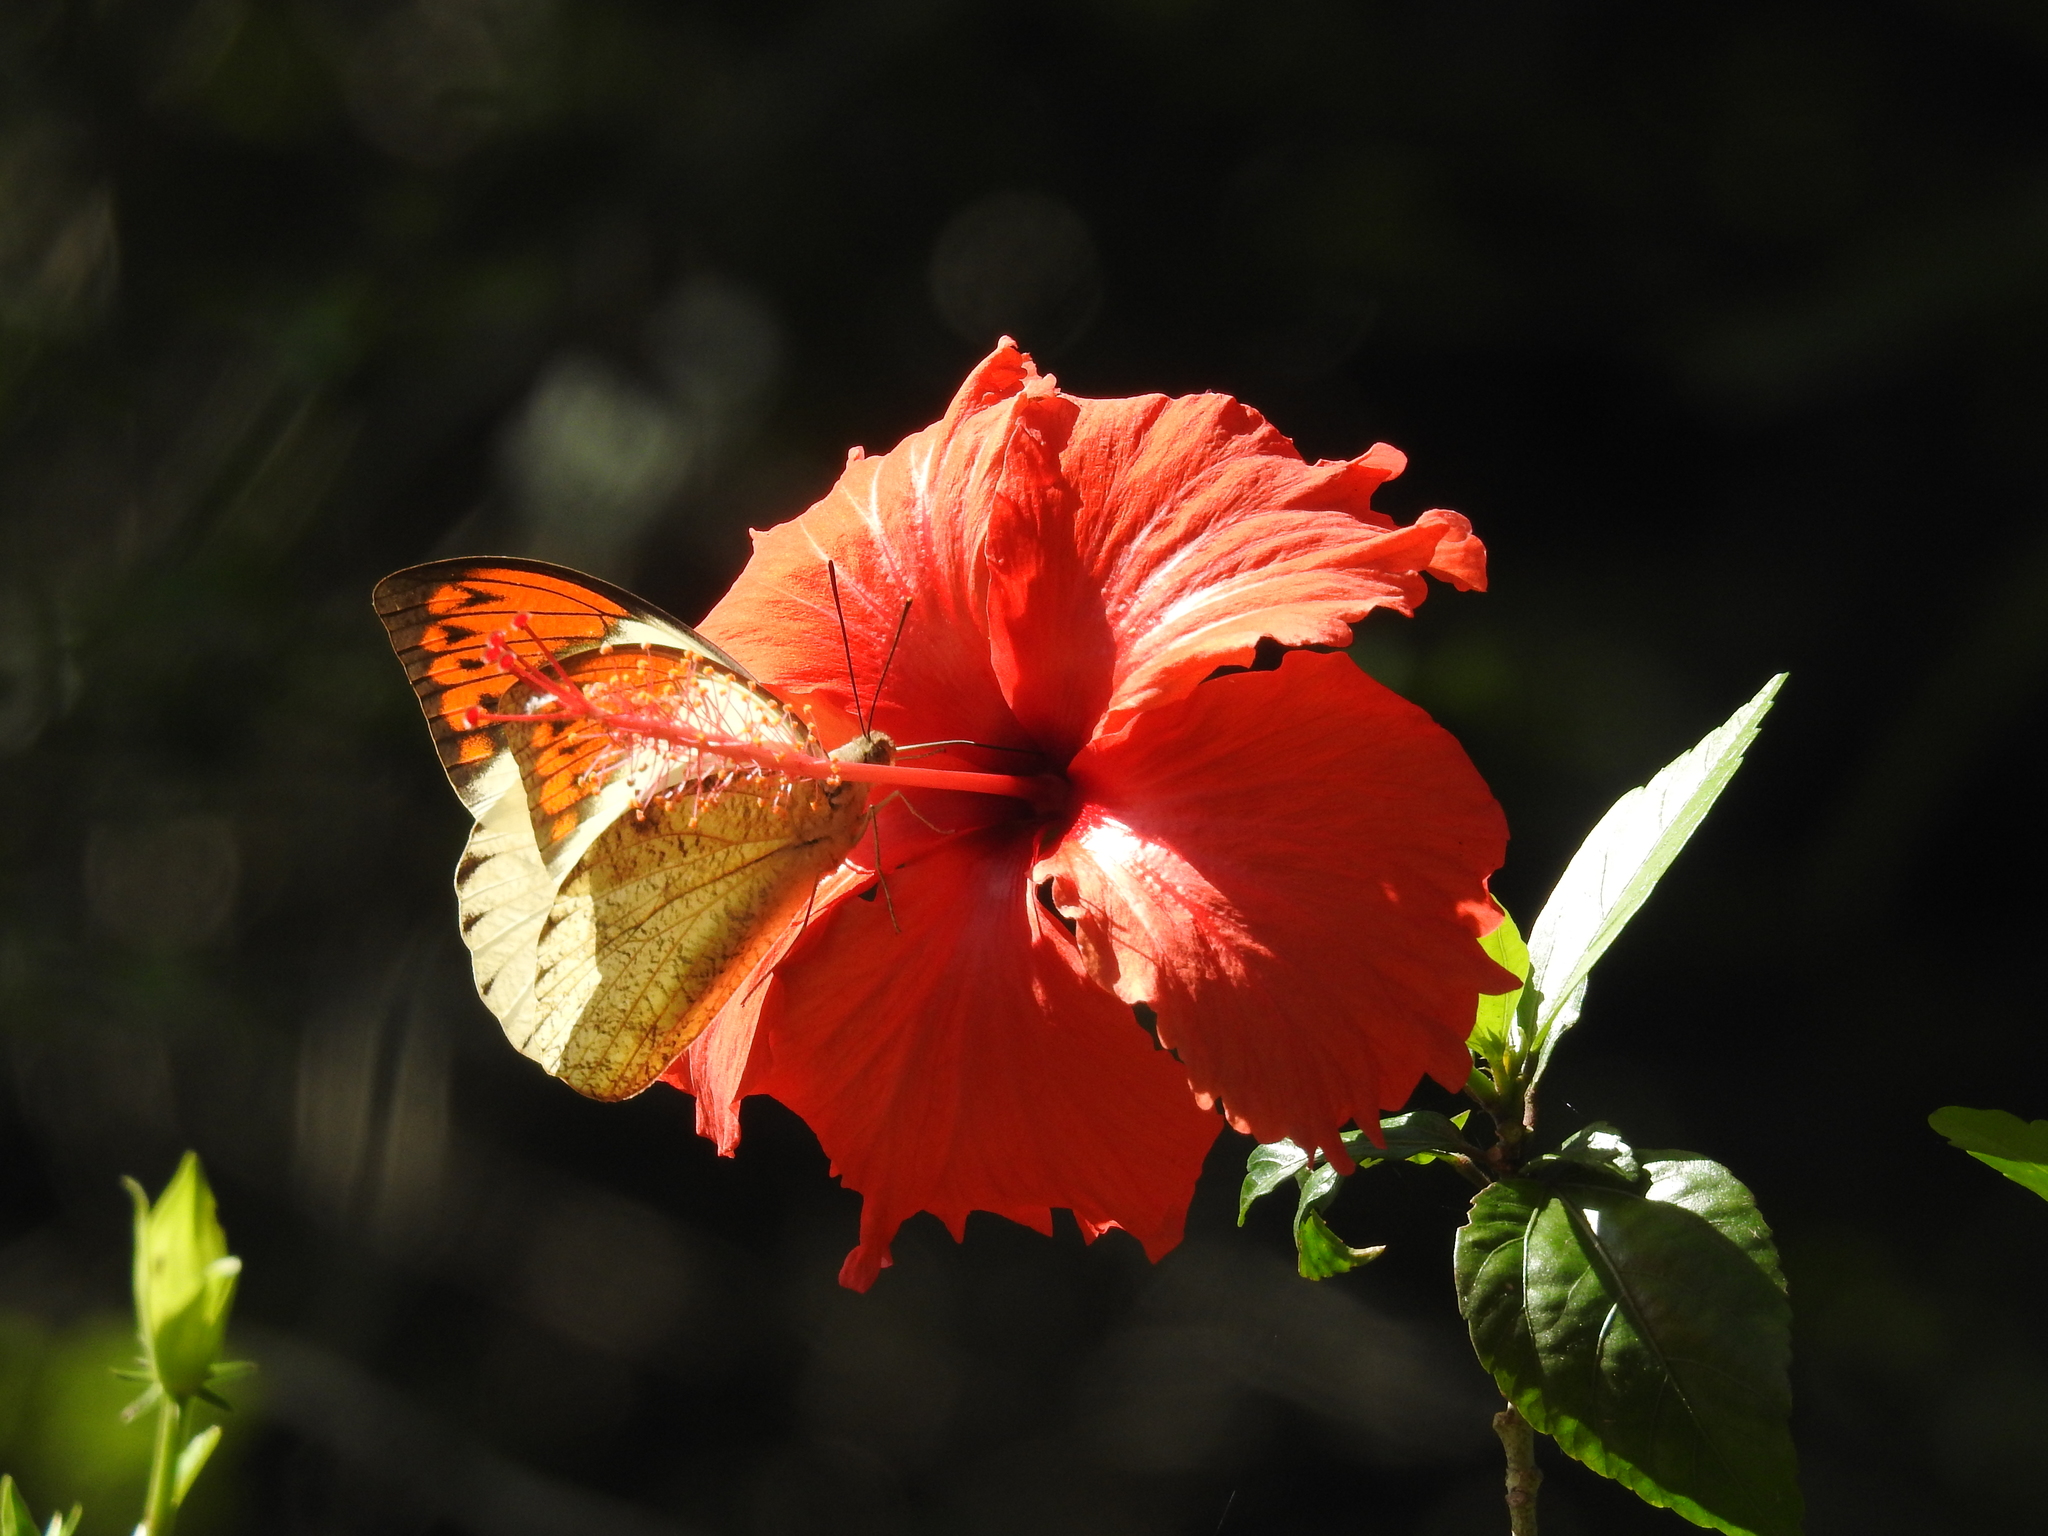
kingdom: Animalia
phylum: Arthropoda
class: Insecta
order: Lepidoptera
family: Pieridae
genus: Hebomoia
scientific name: Hebomoia glaucippe
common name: Great orange tip
